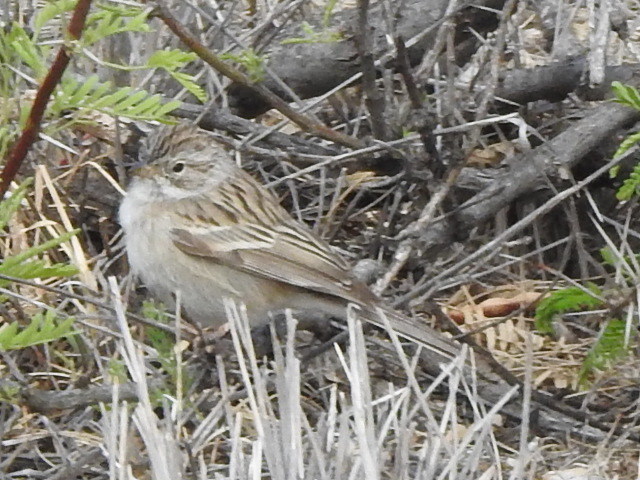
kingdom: Animalia
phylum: Chordata
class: Aves
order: Passeriformes
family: Passerellidae
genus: Spizella
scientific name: Spizella breweri
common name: Brewer's sparrow
